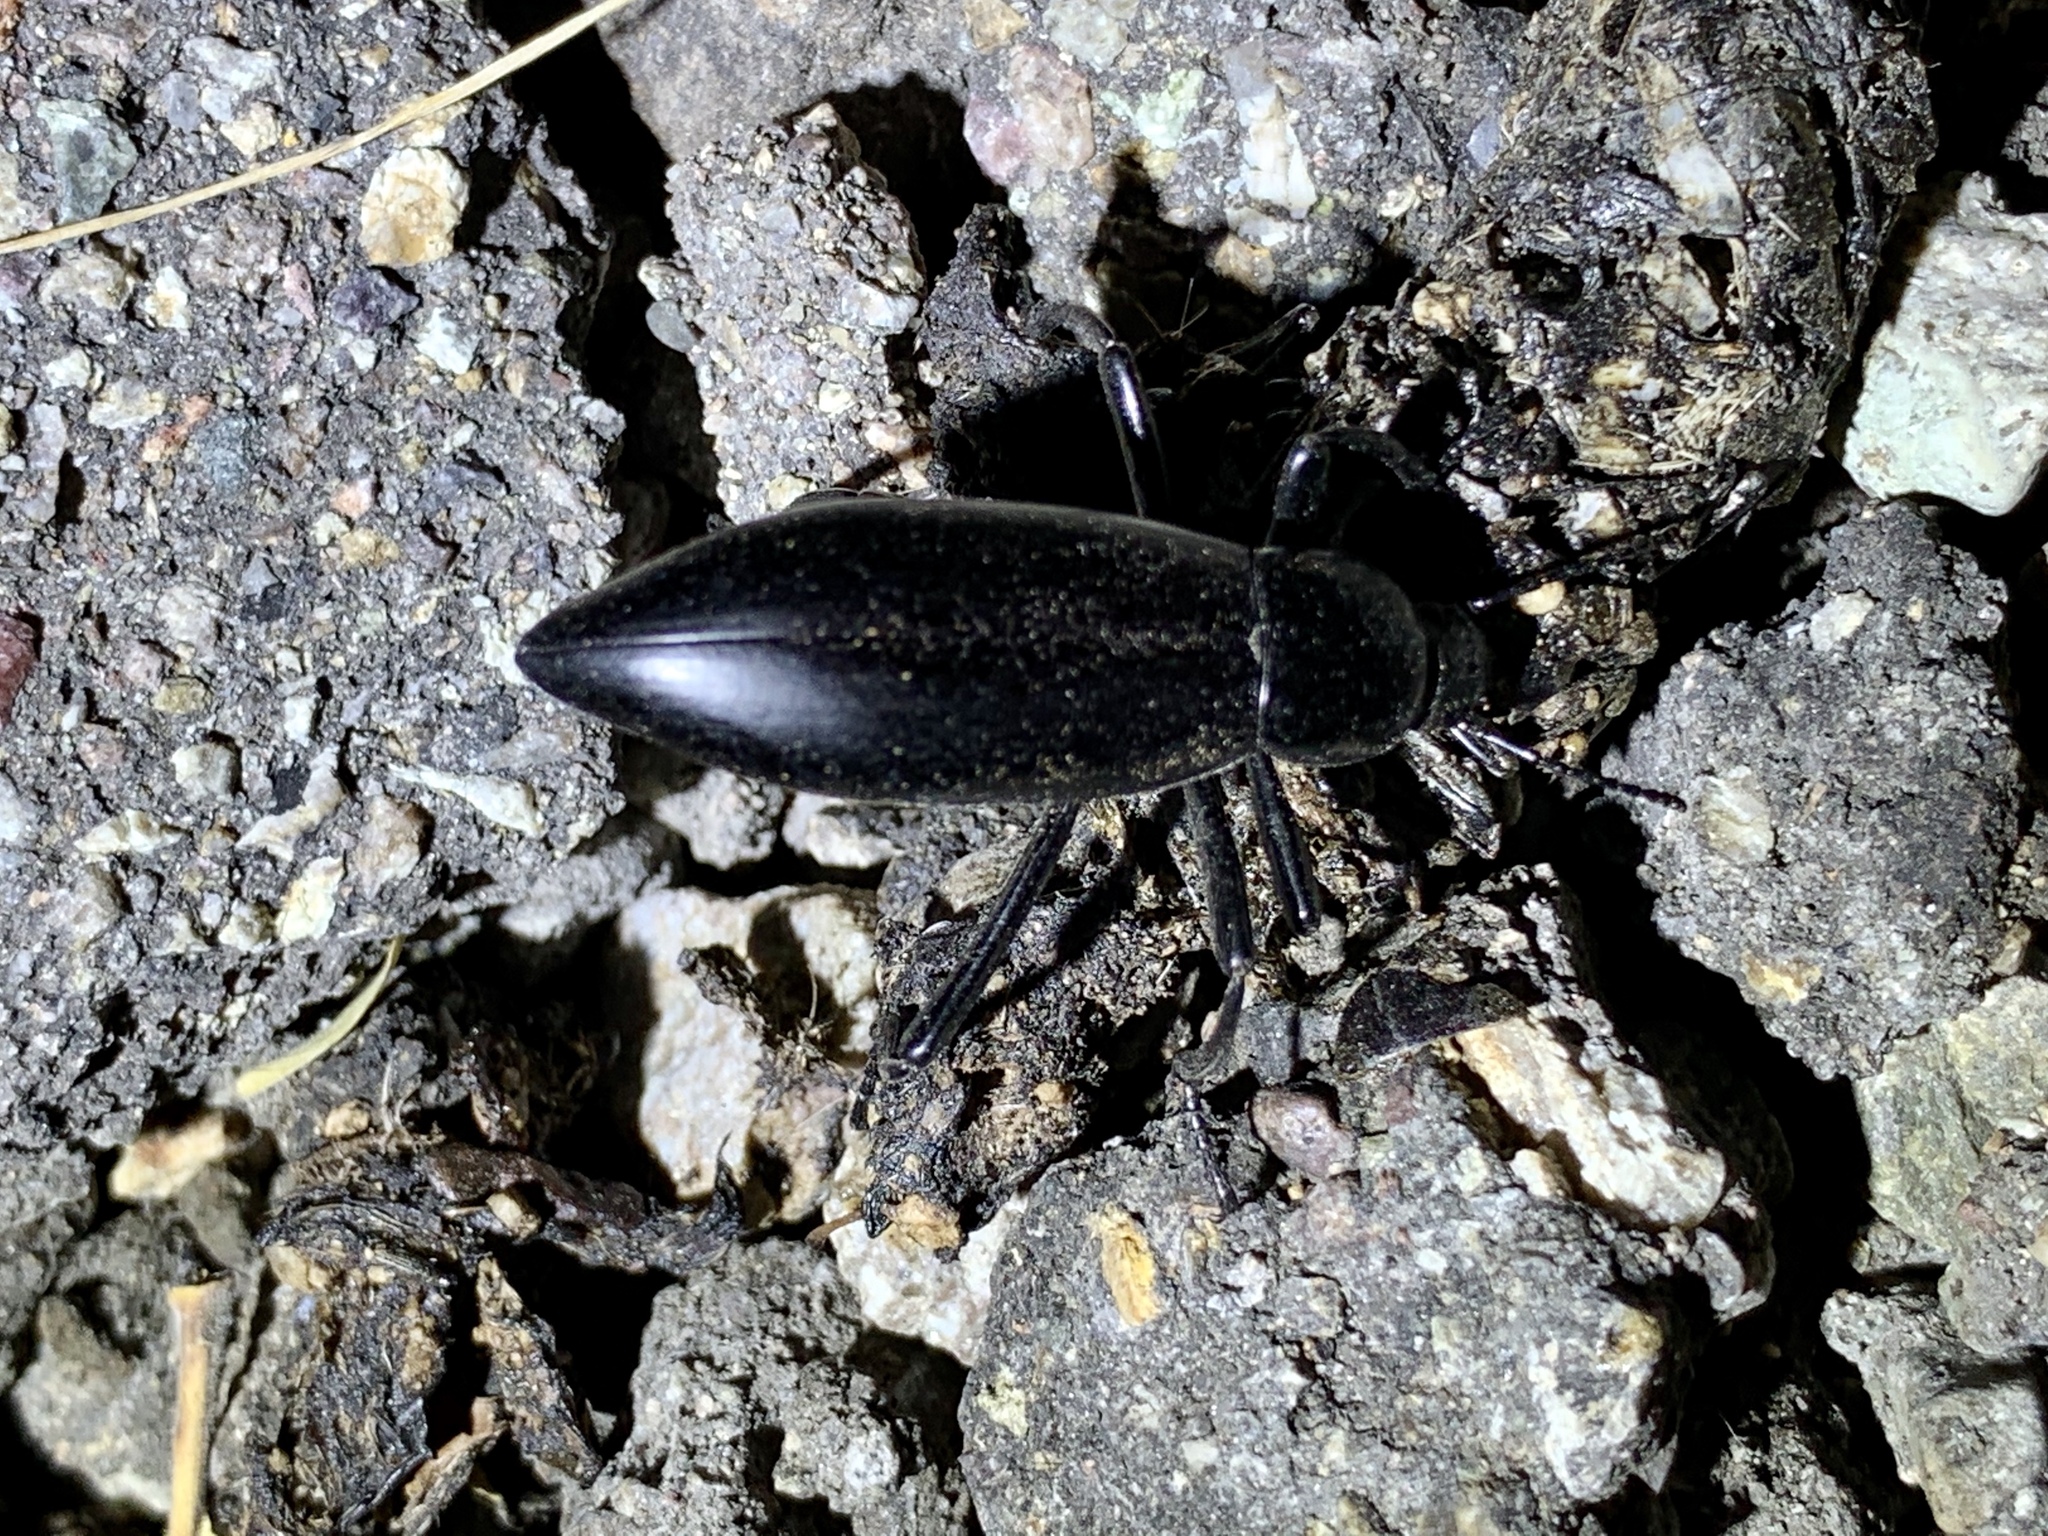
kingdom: Animalia
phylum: Arthropoda
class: Insecta
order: Coleoptera
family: Tenebrionidae
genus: Eleodes
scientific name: Eleodes longicollis
